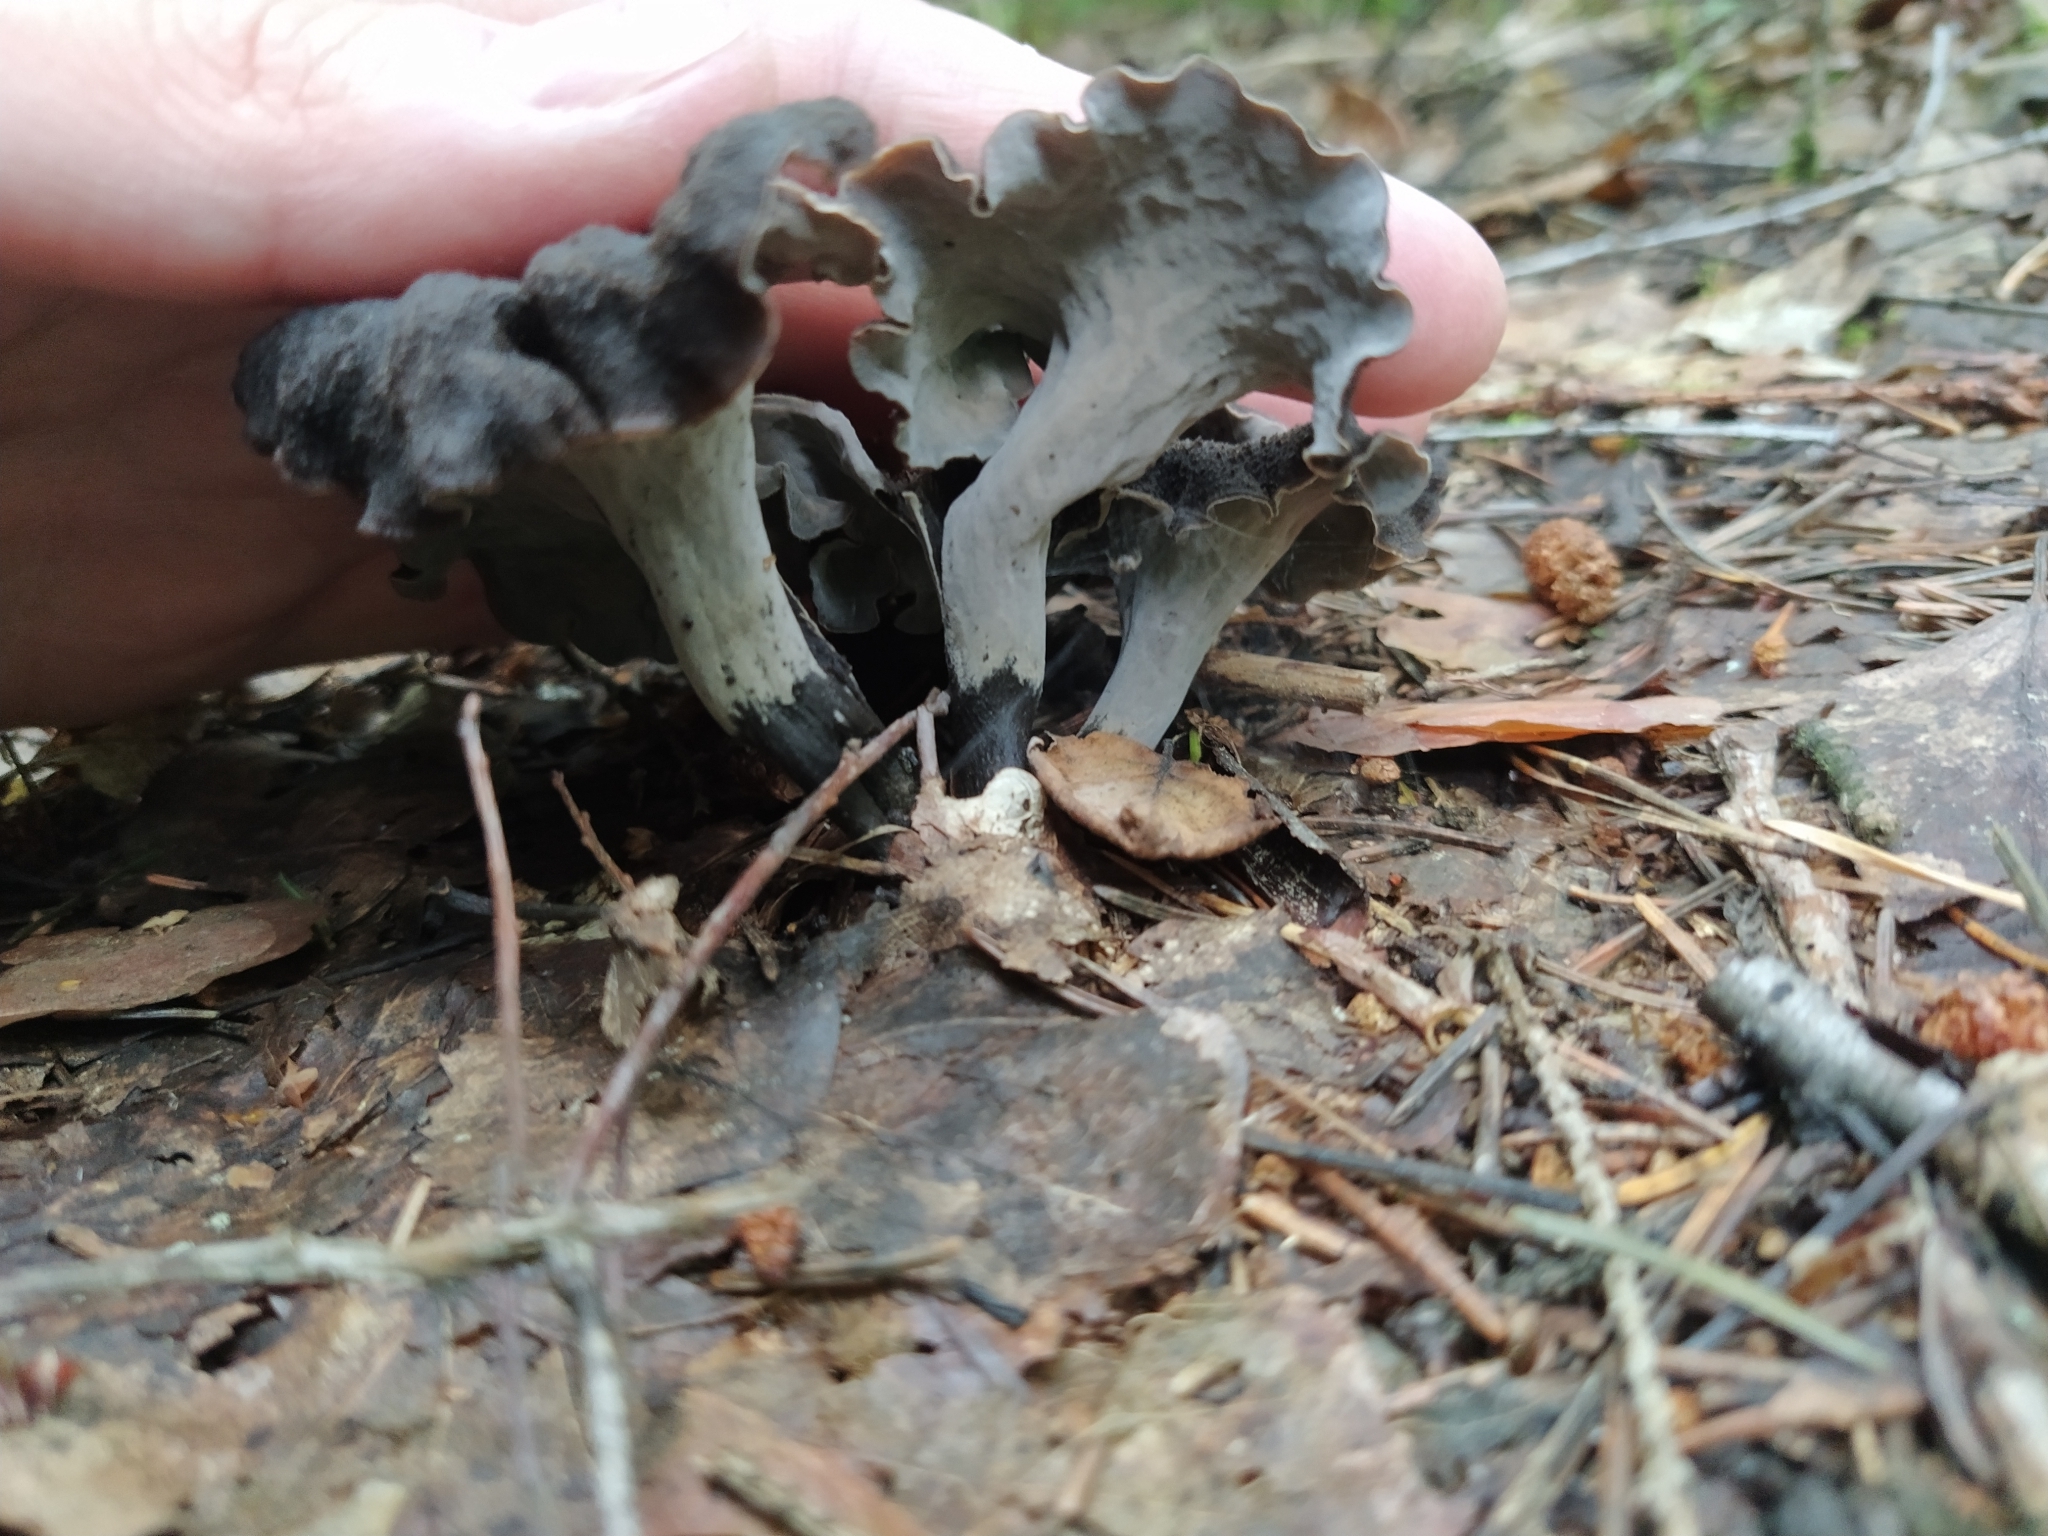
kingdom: Fungi
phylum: Basidiomycota
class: Agaricomycetes
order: Cantharellales
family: Hydnaceae
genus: Craterellus
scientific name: Craterellus cornucopioides
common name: Horn of plenty
